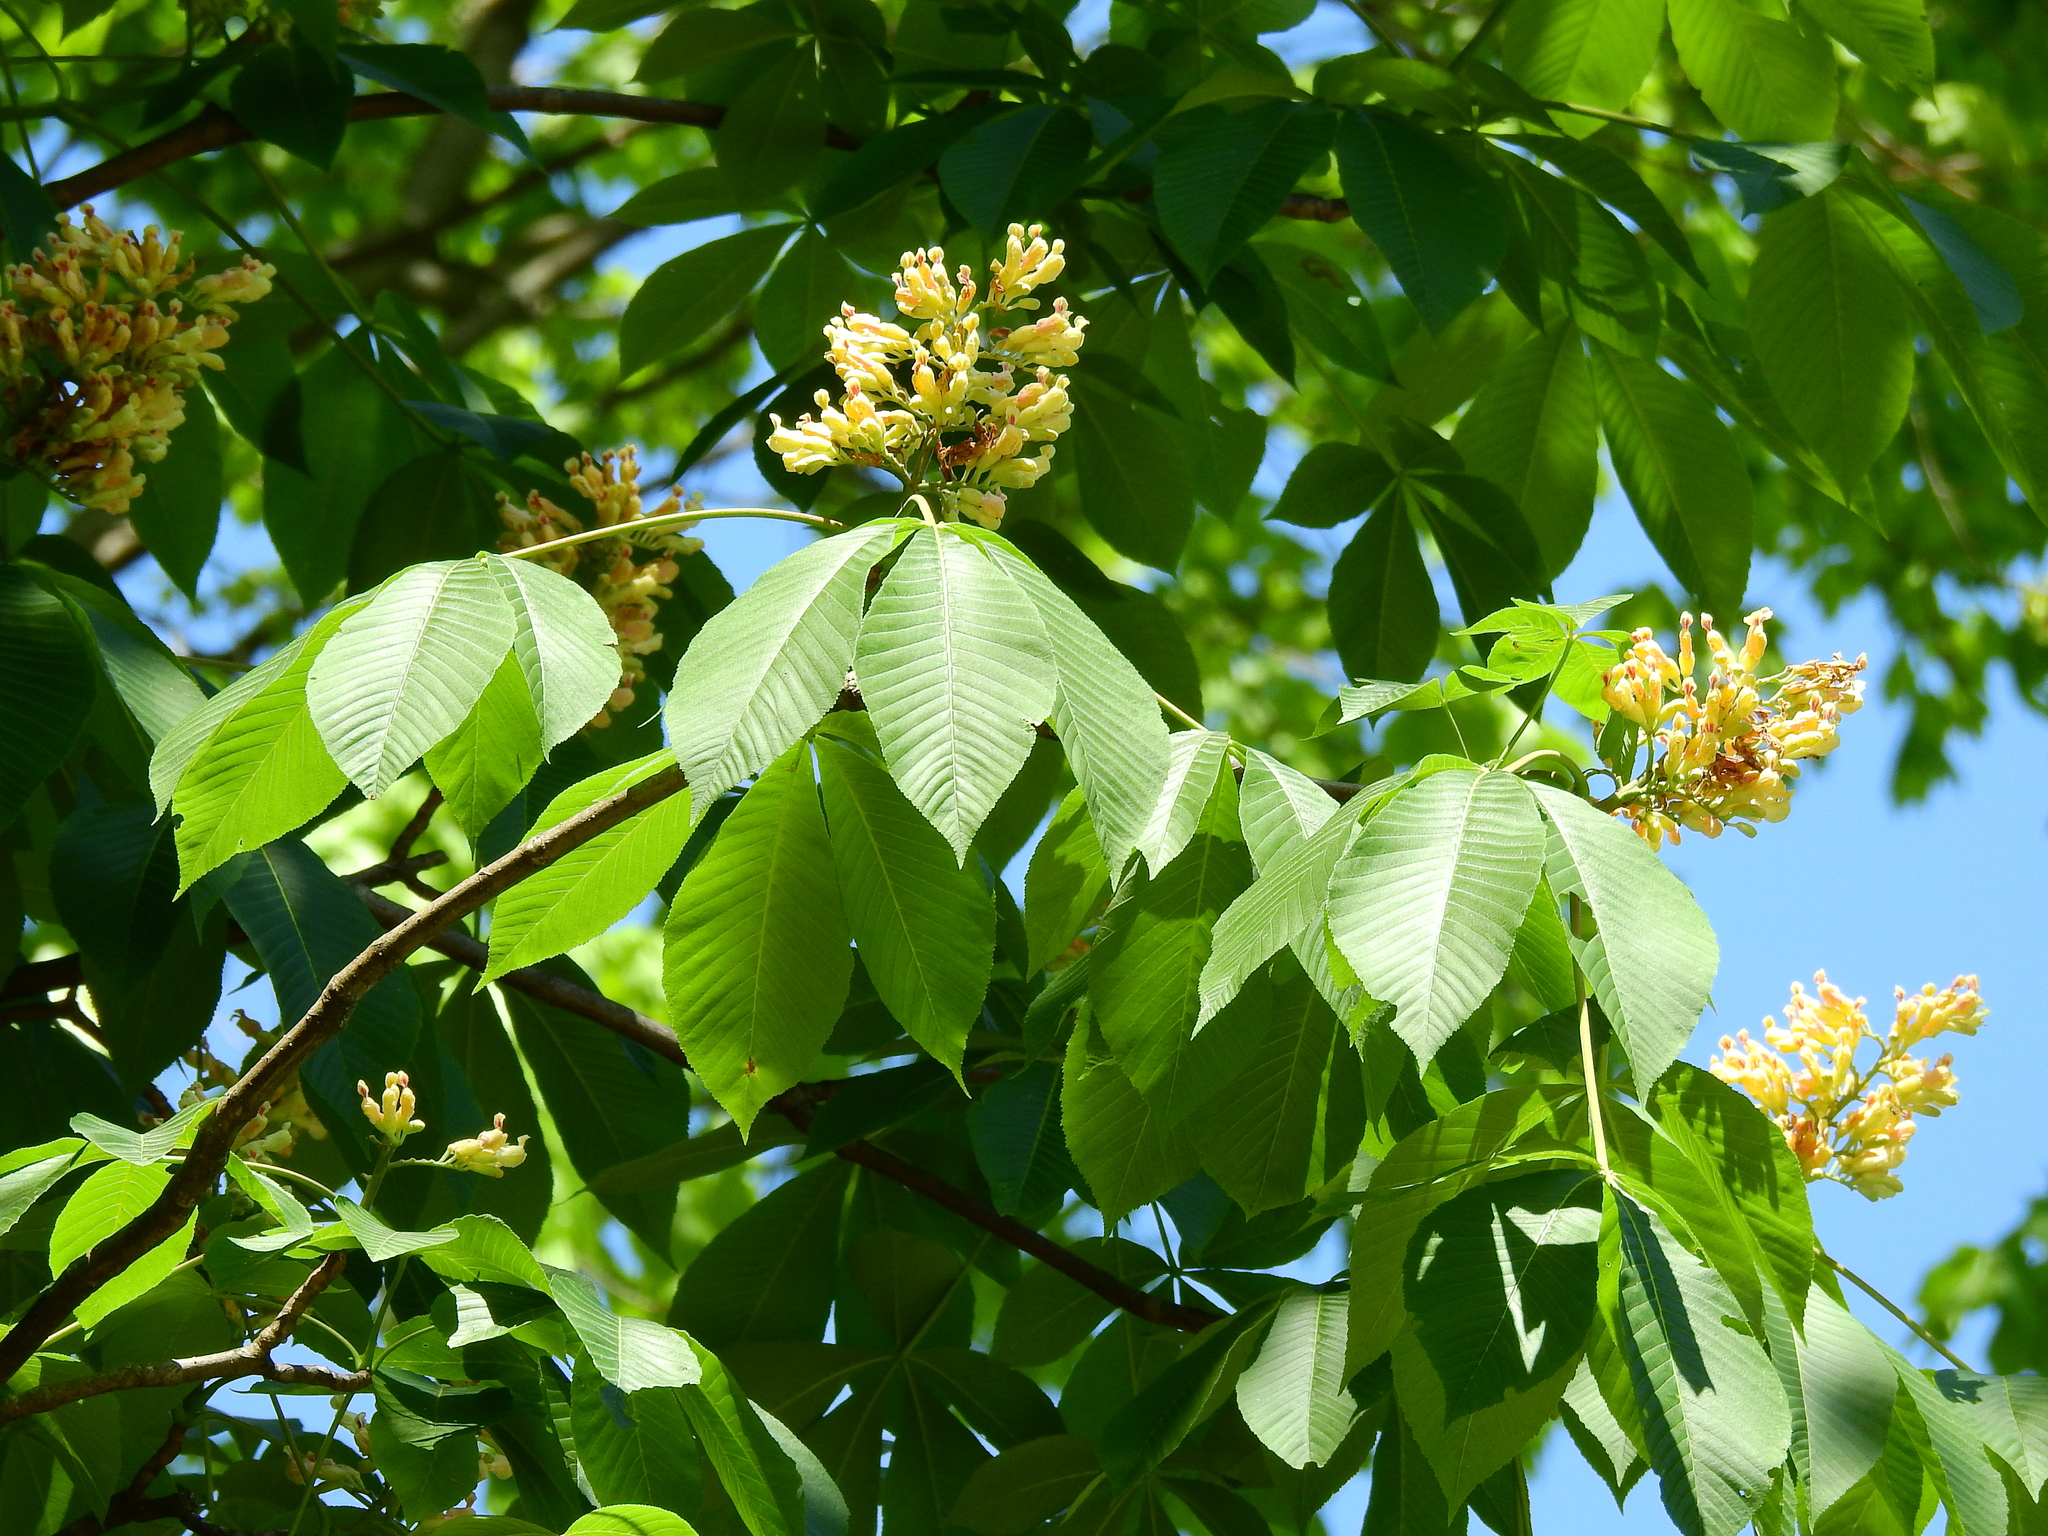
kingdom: Plantae
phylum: Tracheophyta
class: Magnoliopsida
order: Sapindales
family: Sapindaceae
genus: Aesculus
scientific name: Aesculus flava
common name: Yellow buckeye
